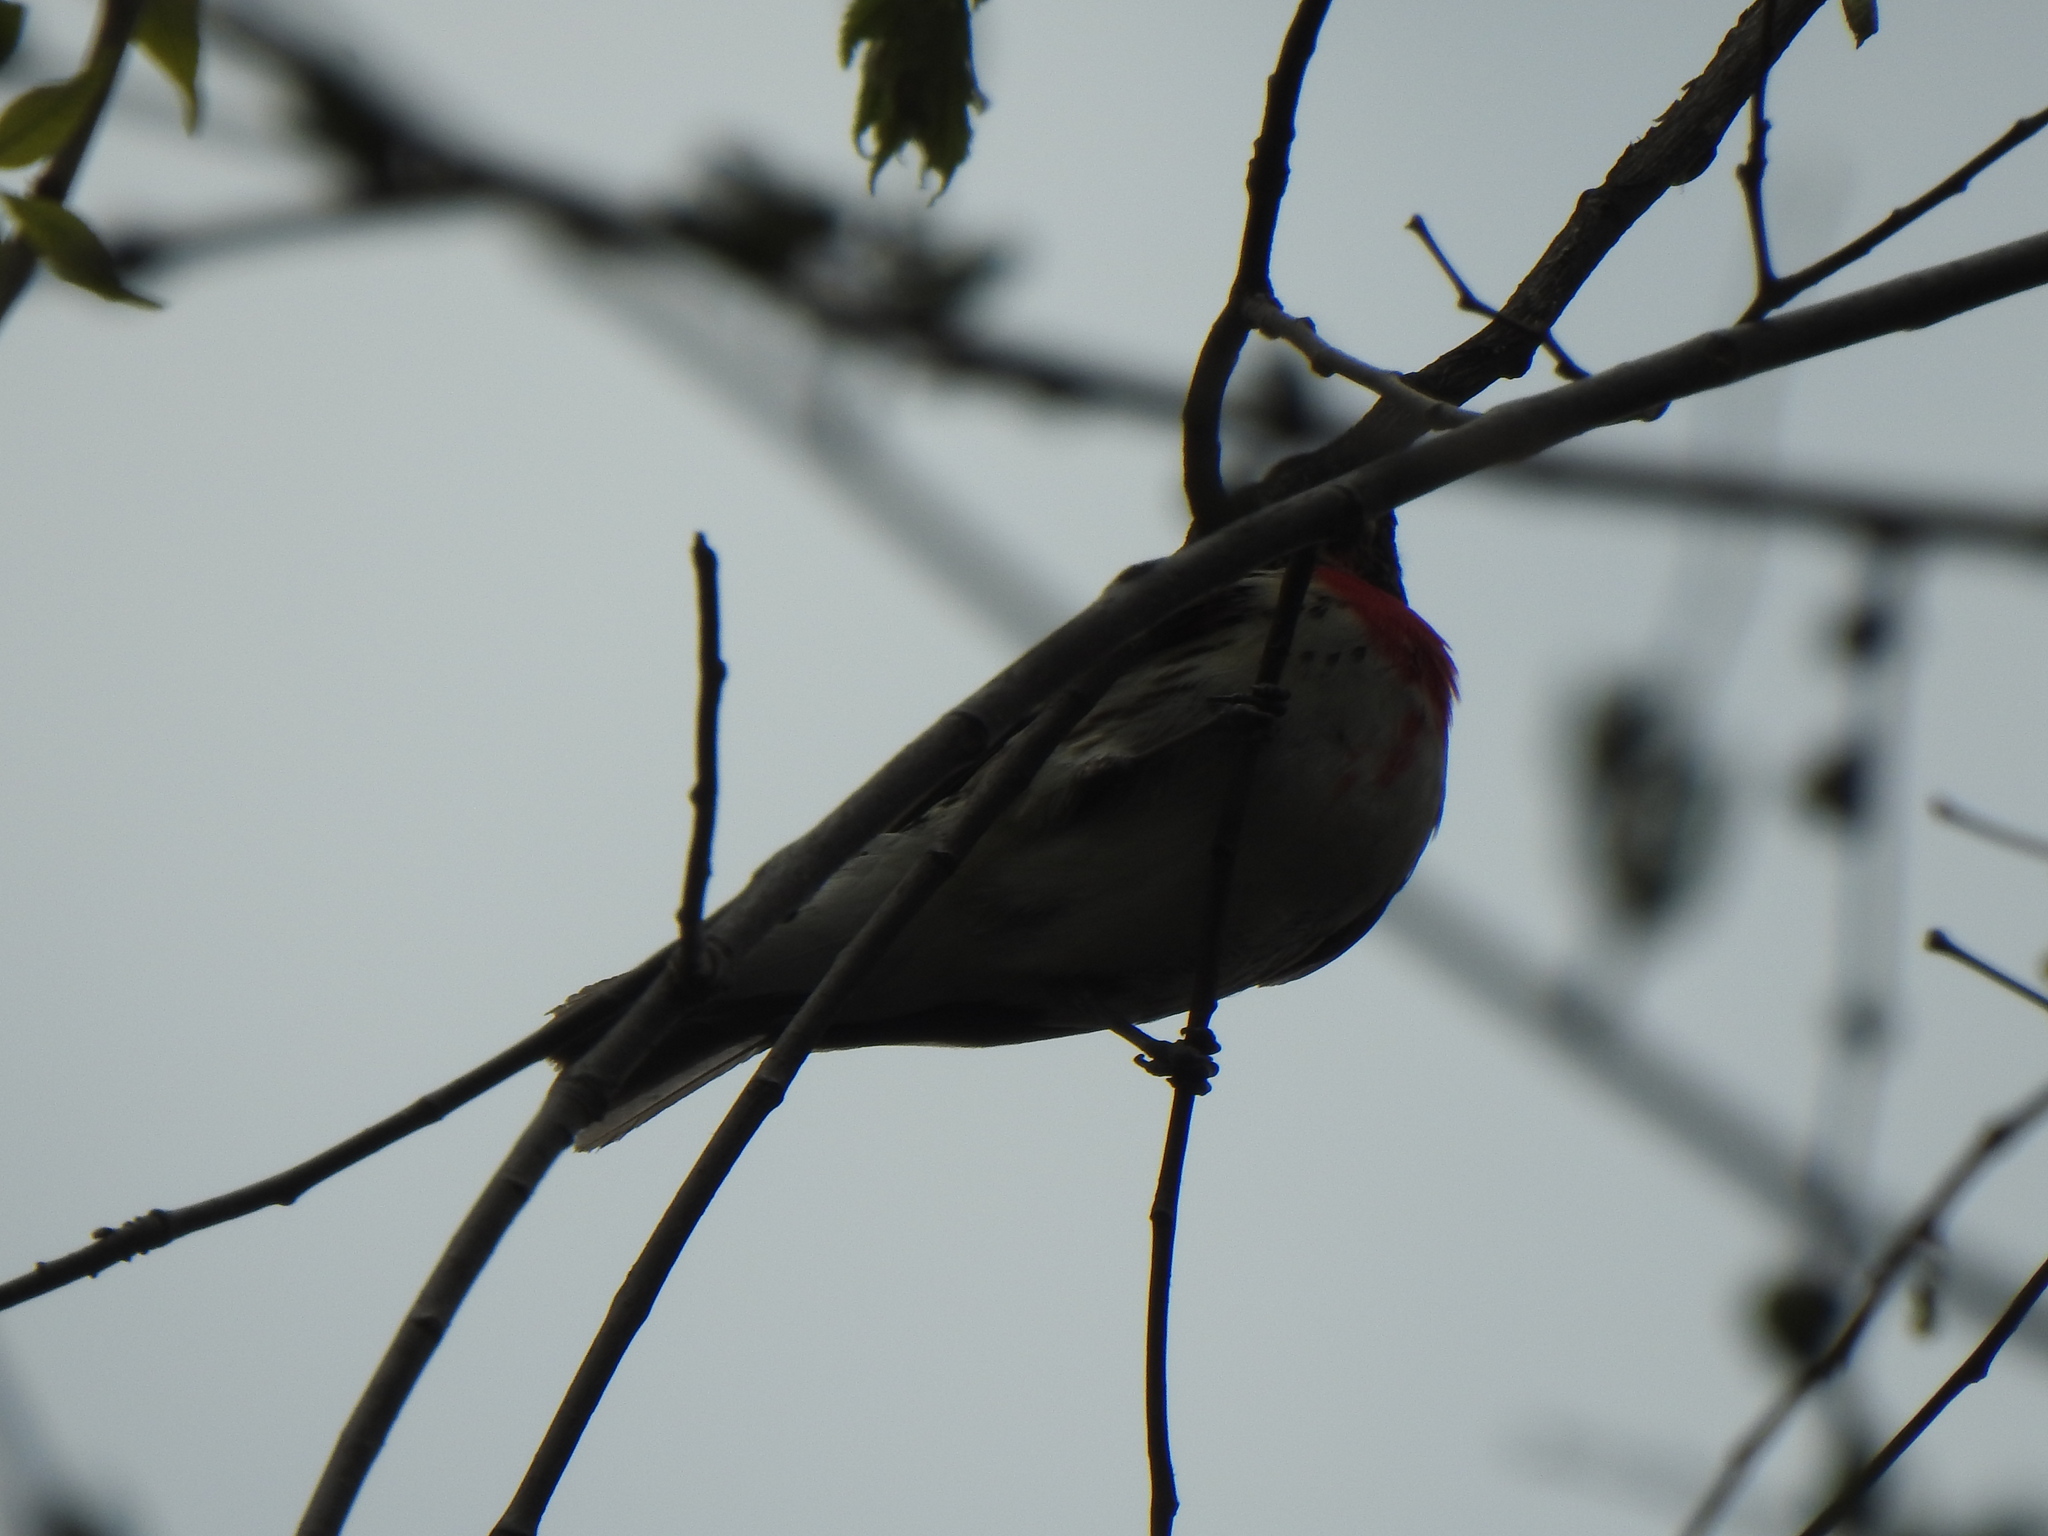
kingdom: Animalia
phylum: Chordata
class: Aves
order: Passeriformes
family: Cardinalidae
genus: Pheucticus
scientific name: Pheucticus ludovicianus
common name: Rose-breasted grosbeak
